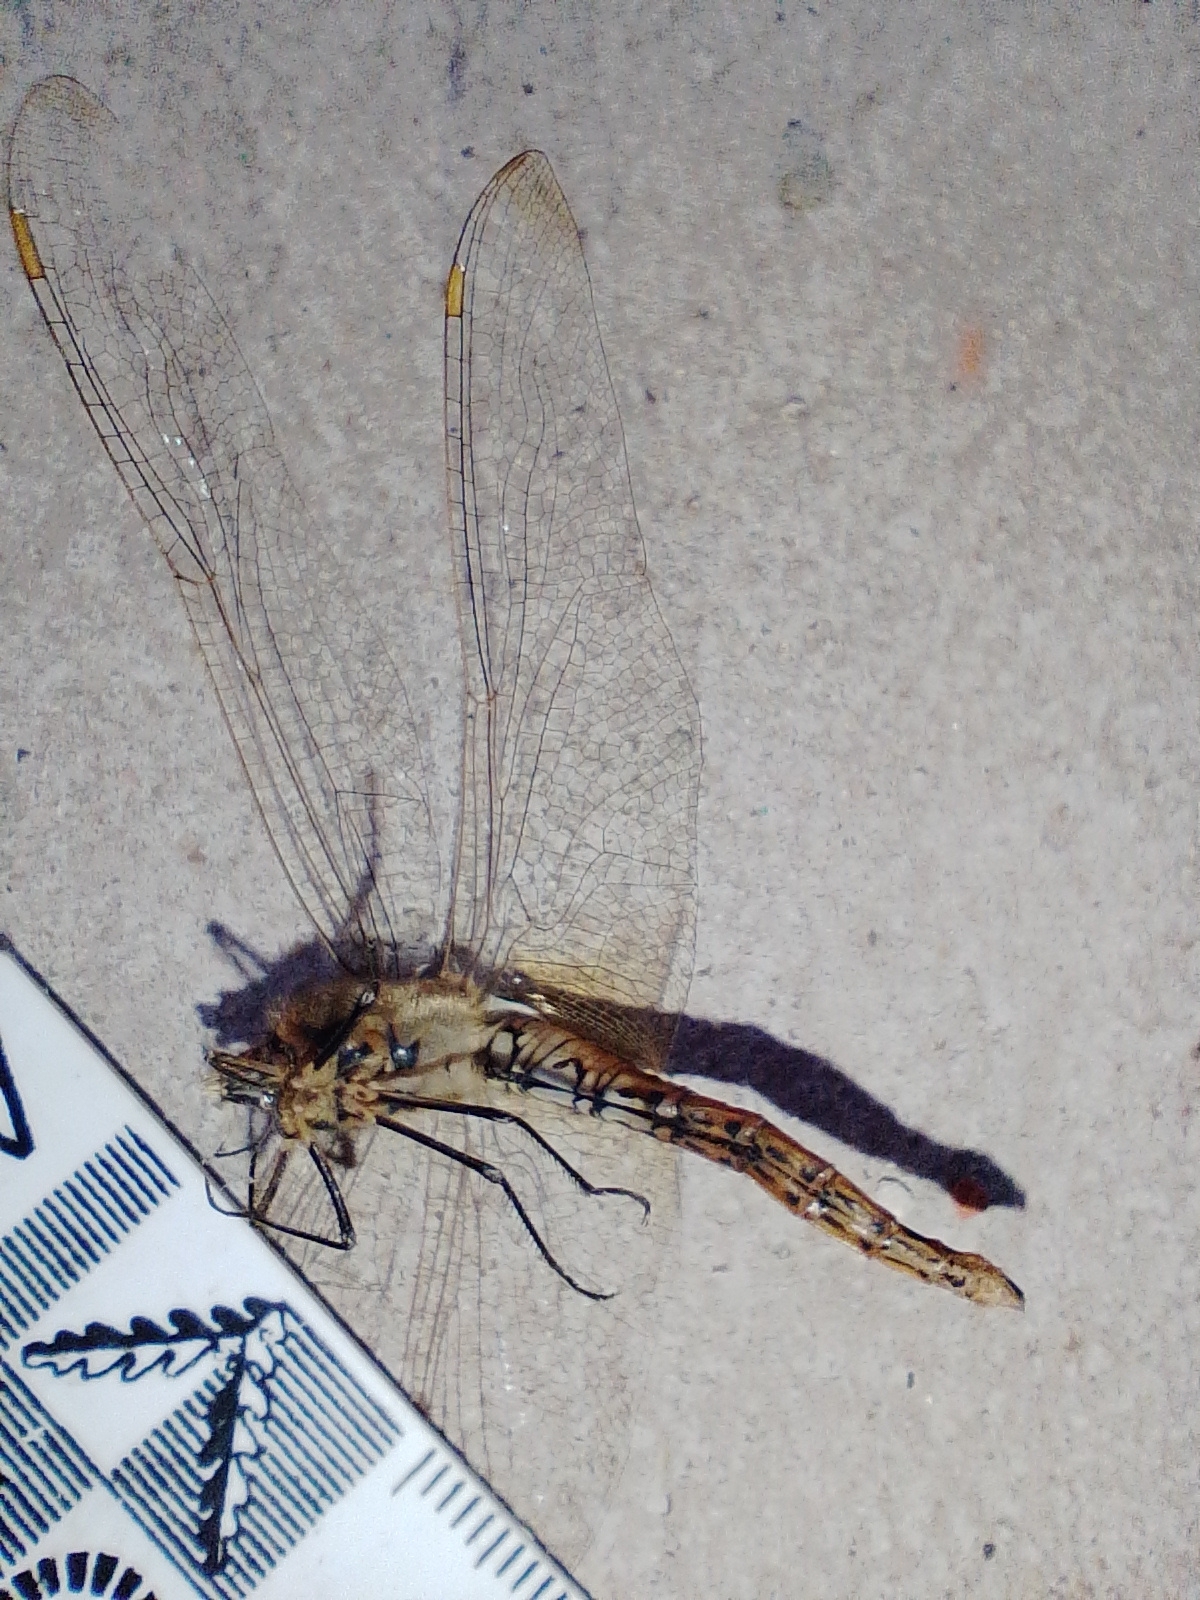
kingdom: Animalia
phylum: Arthropoda
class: Insecta
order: Odonata
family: Libellulidae
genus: Pantala
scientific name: Pantala flavescens
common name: Wandering glider
